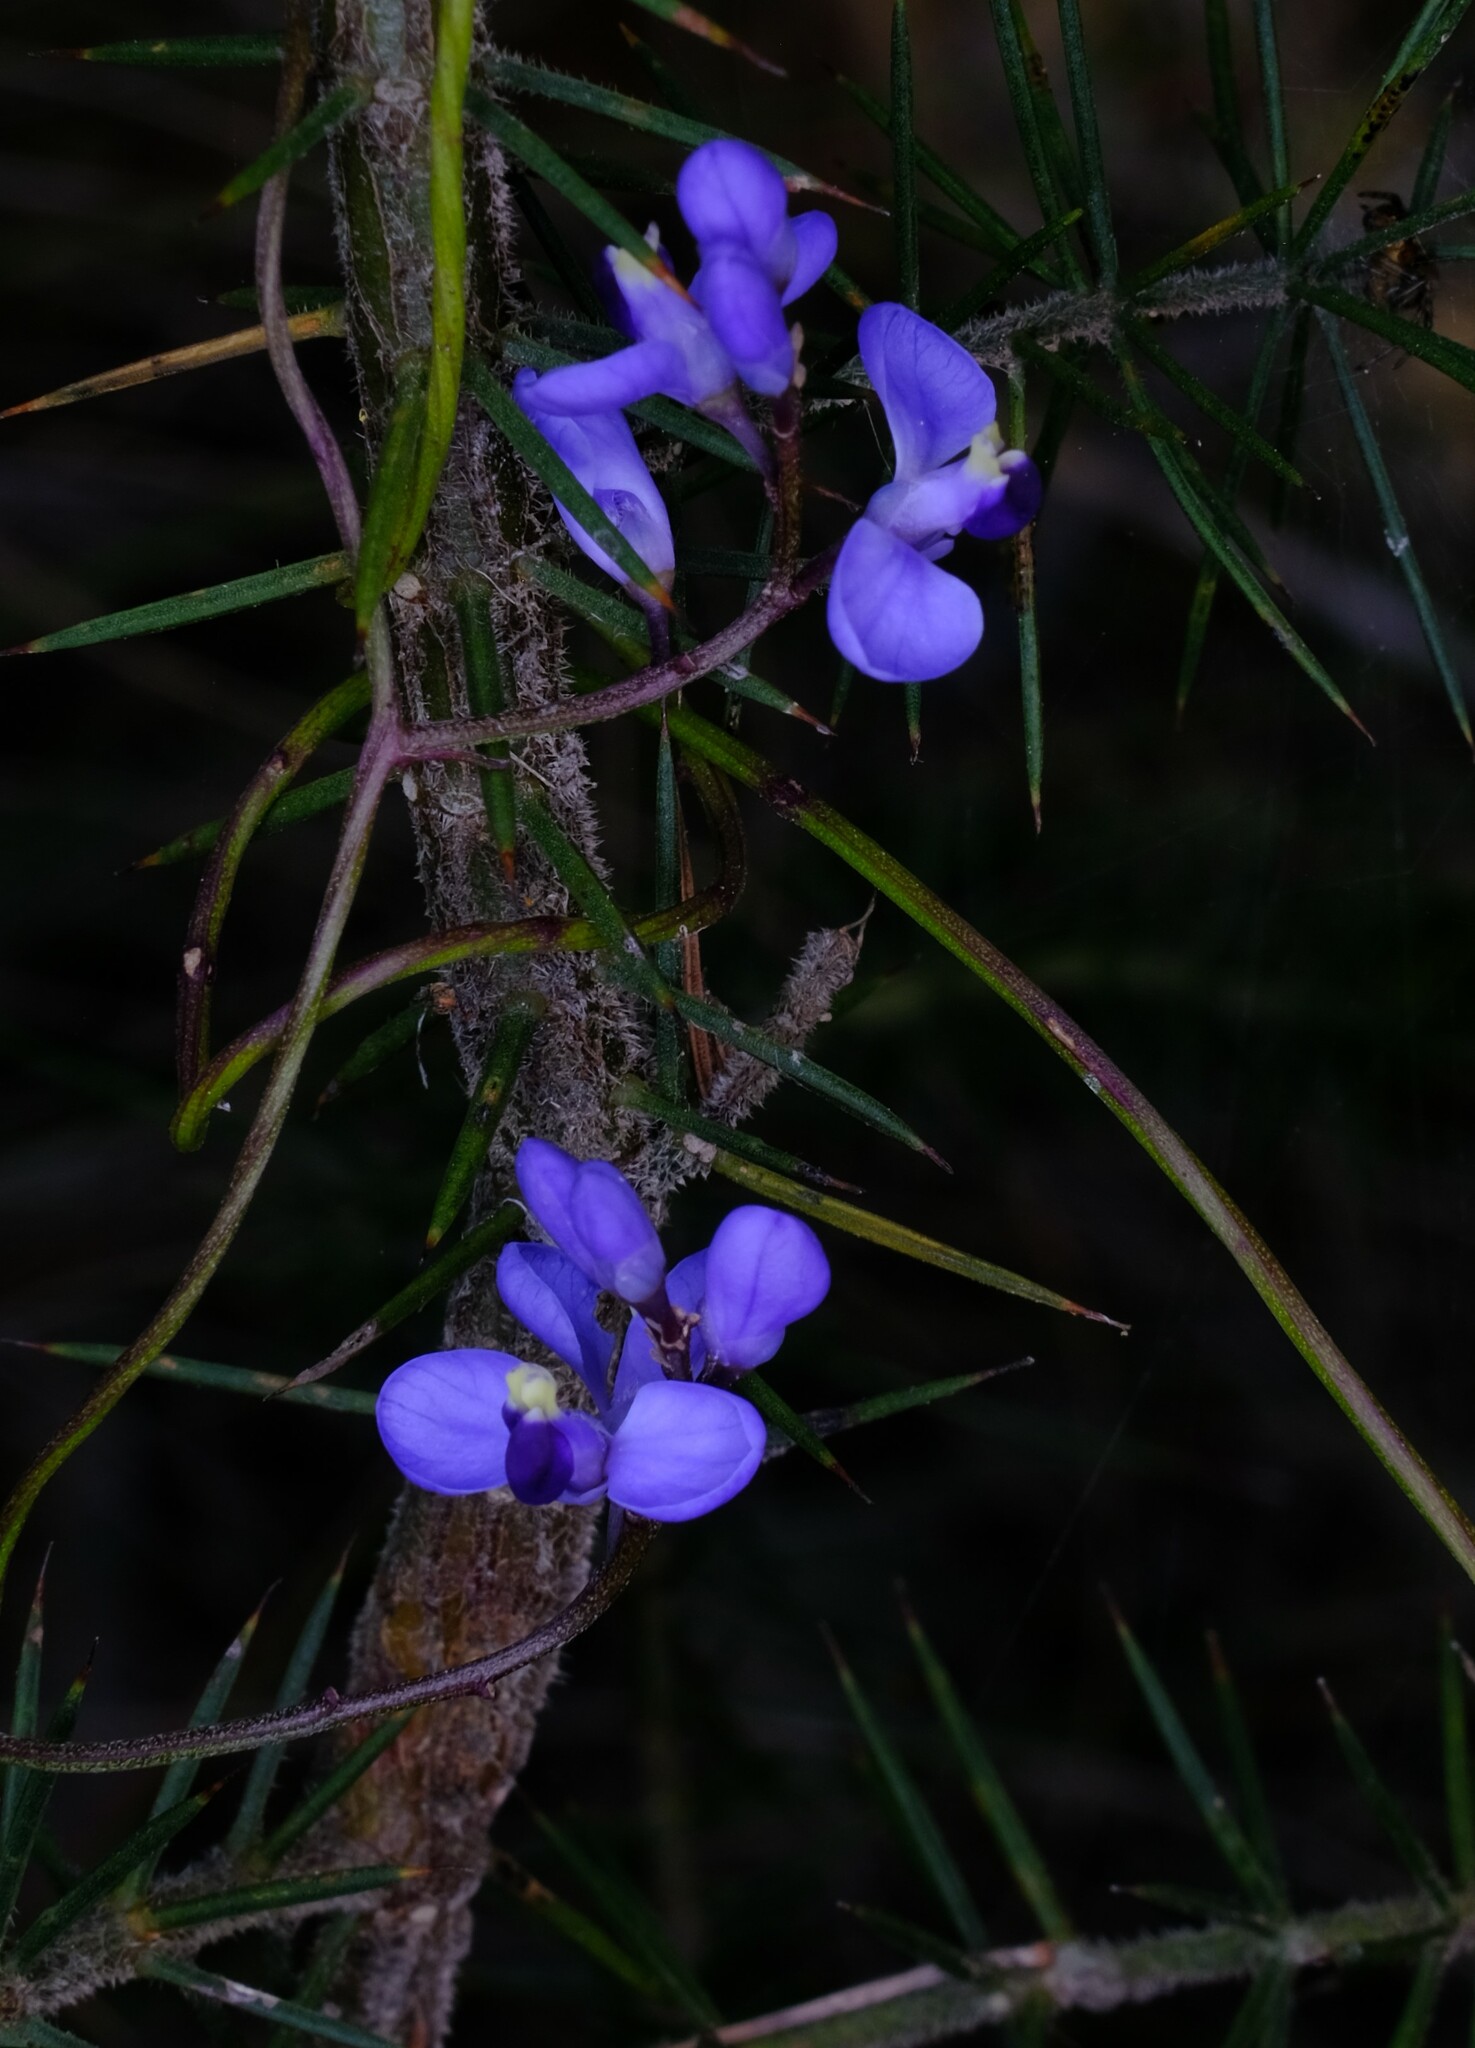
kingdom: Plantae
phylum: Tracheophyta
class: Magnoliopsida
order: Fabales
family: Polygalaceae
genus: Comesperma
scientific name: Comesperma volubile
